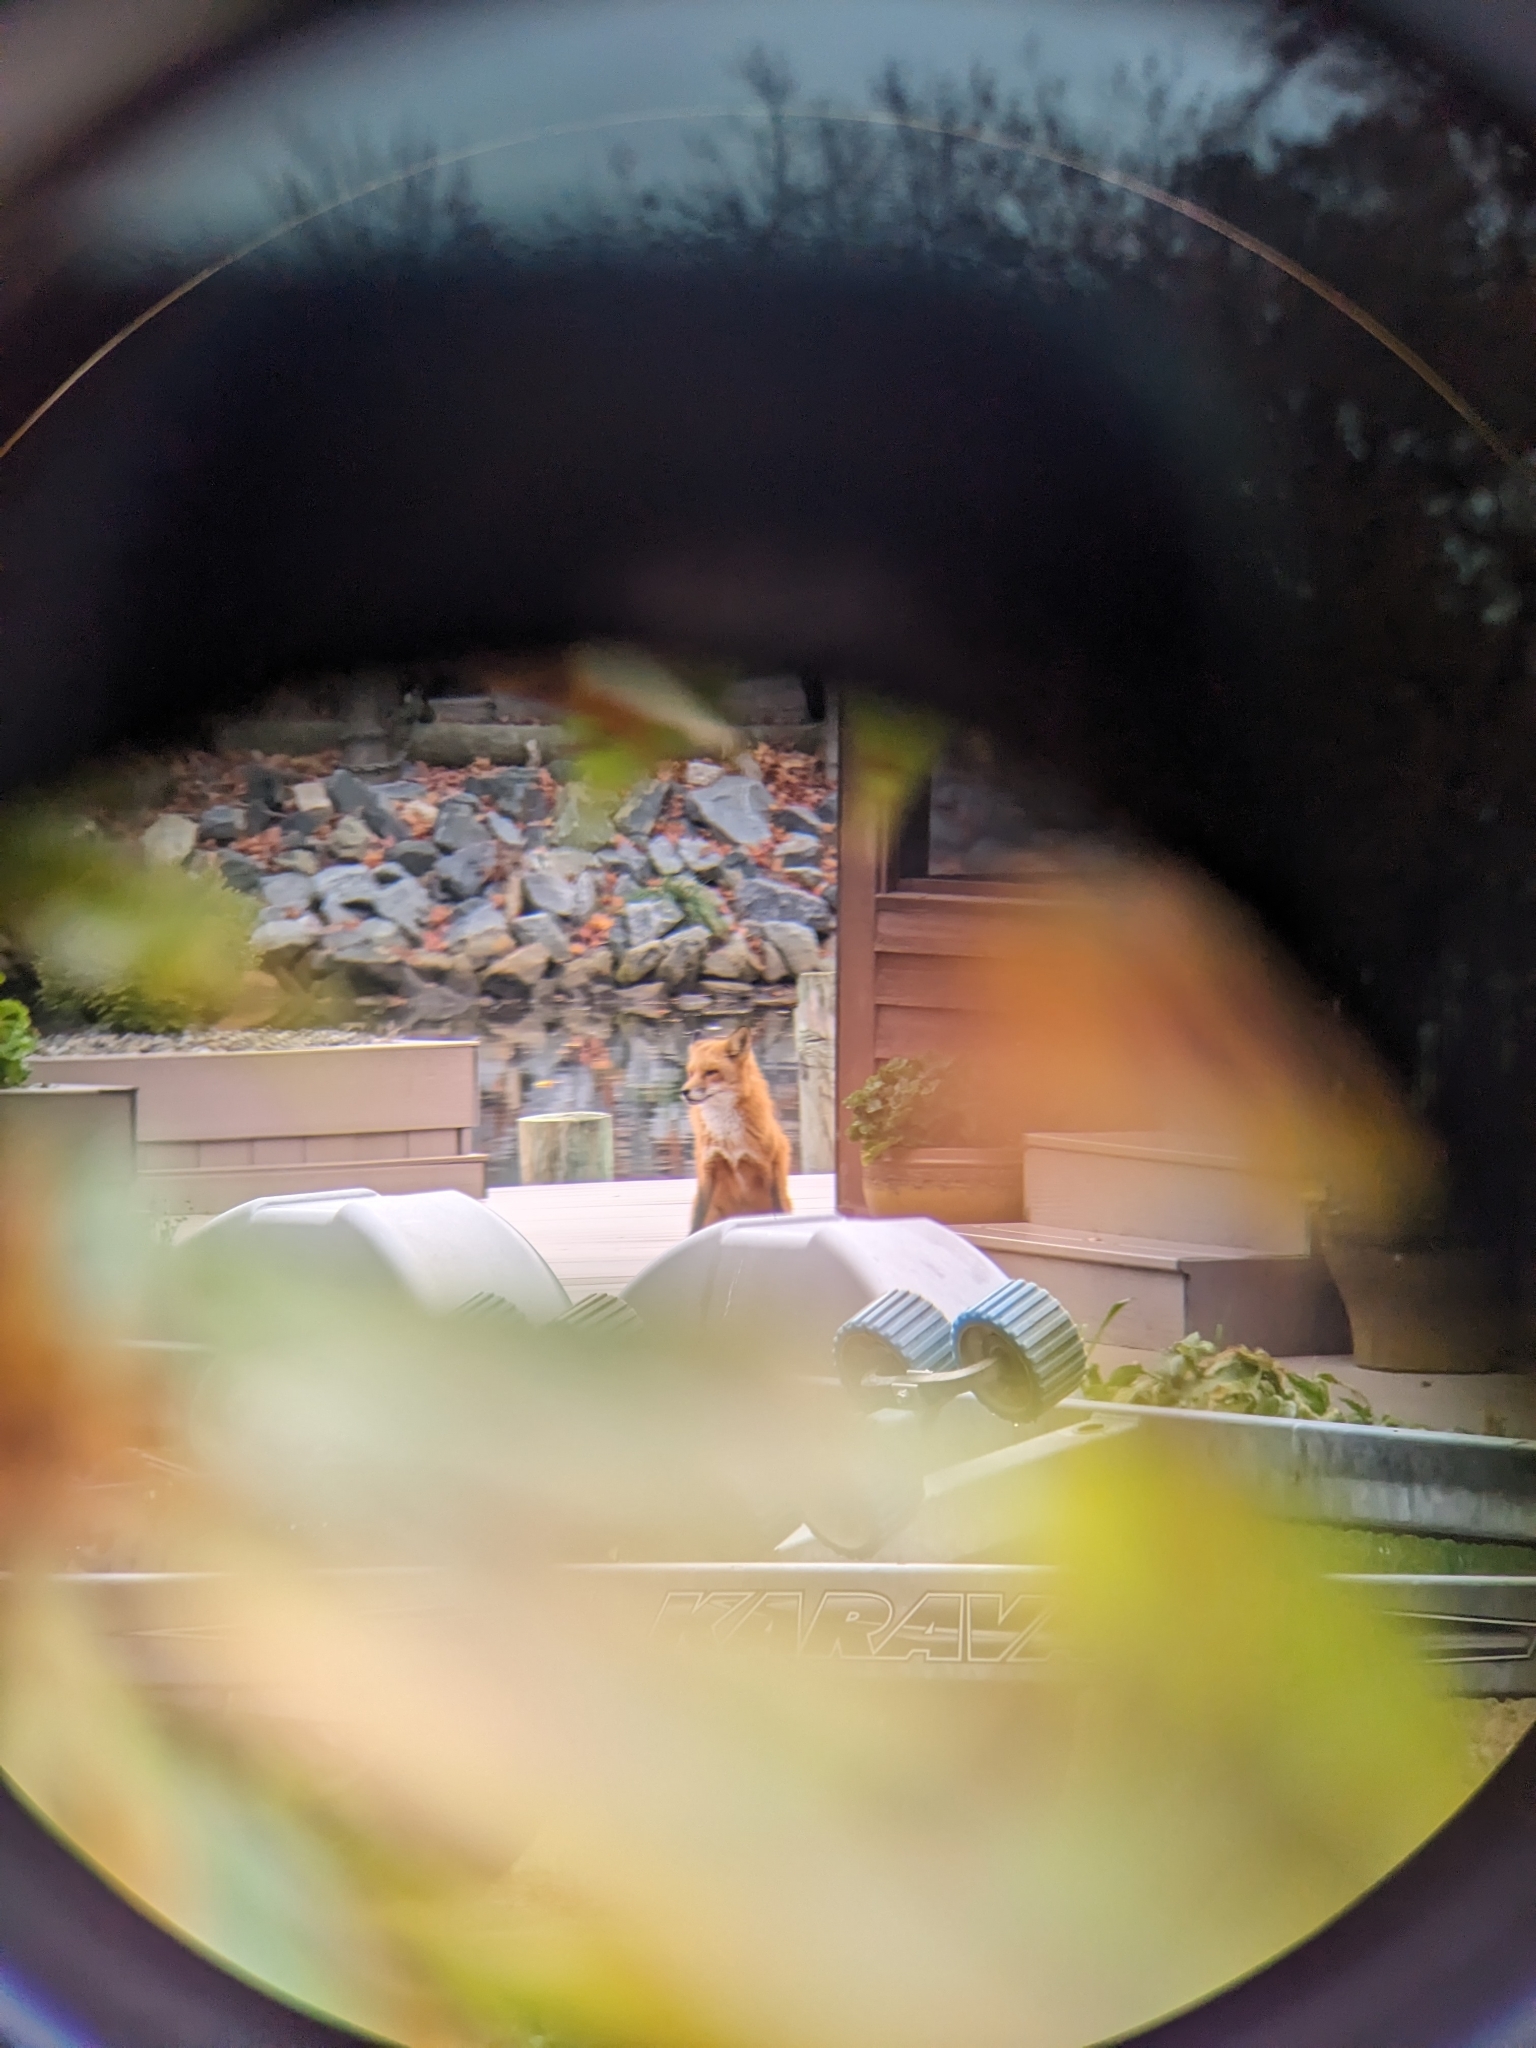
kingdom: Animalia
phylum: Chordata
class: Mammalia
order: Carnivora
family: Canidae
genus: Vulpes
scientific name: Vulpes vulpes
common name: Red fox
